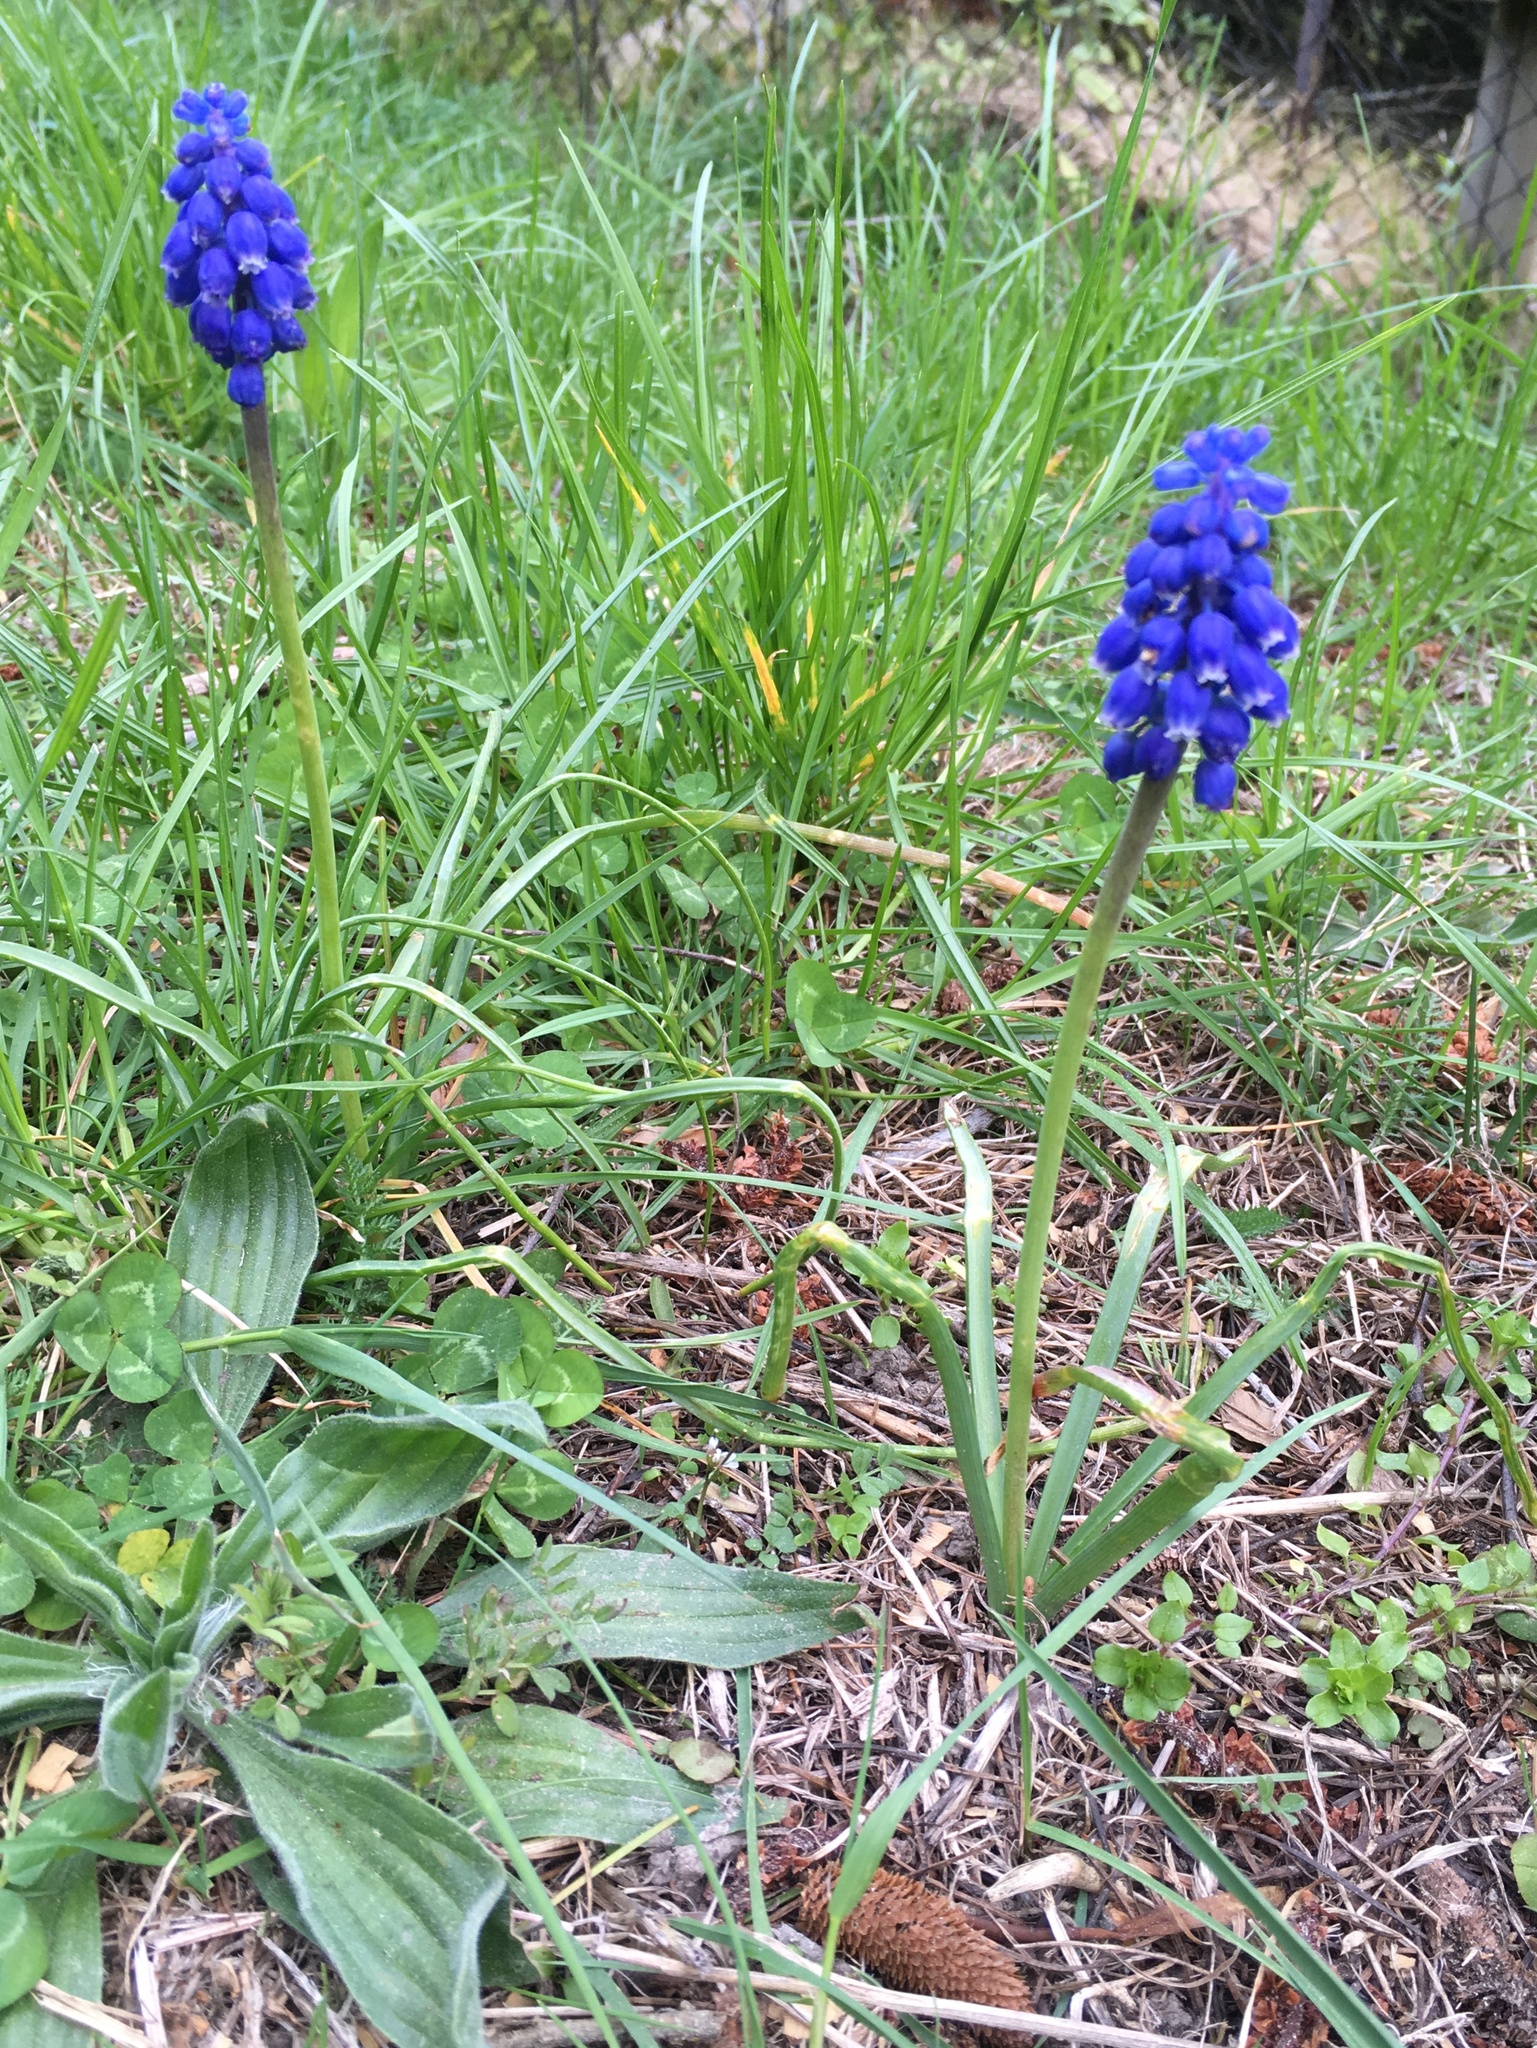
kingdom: Plantae
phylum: Tracheophyta
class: Liliopsida
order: Asparagales
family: Asparagaceae
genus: Muscari
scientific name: Muscari neglectum
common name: Grape-hyacinth
